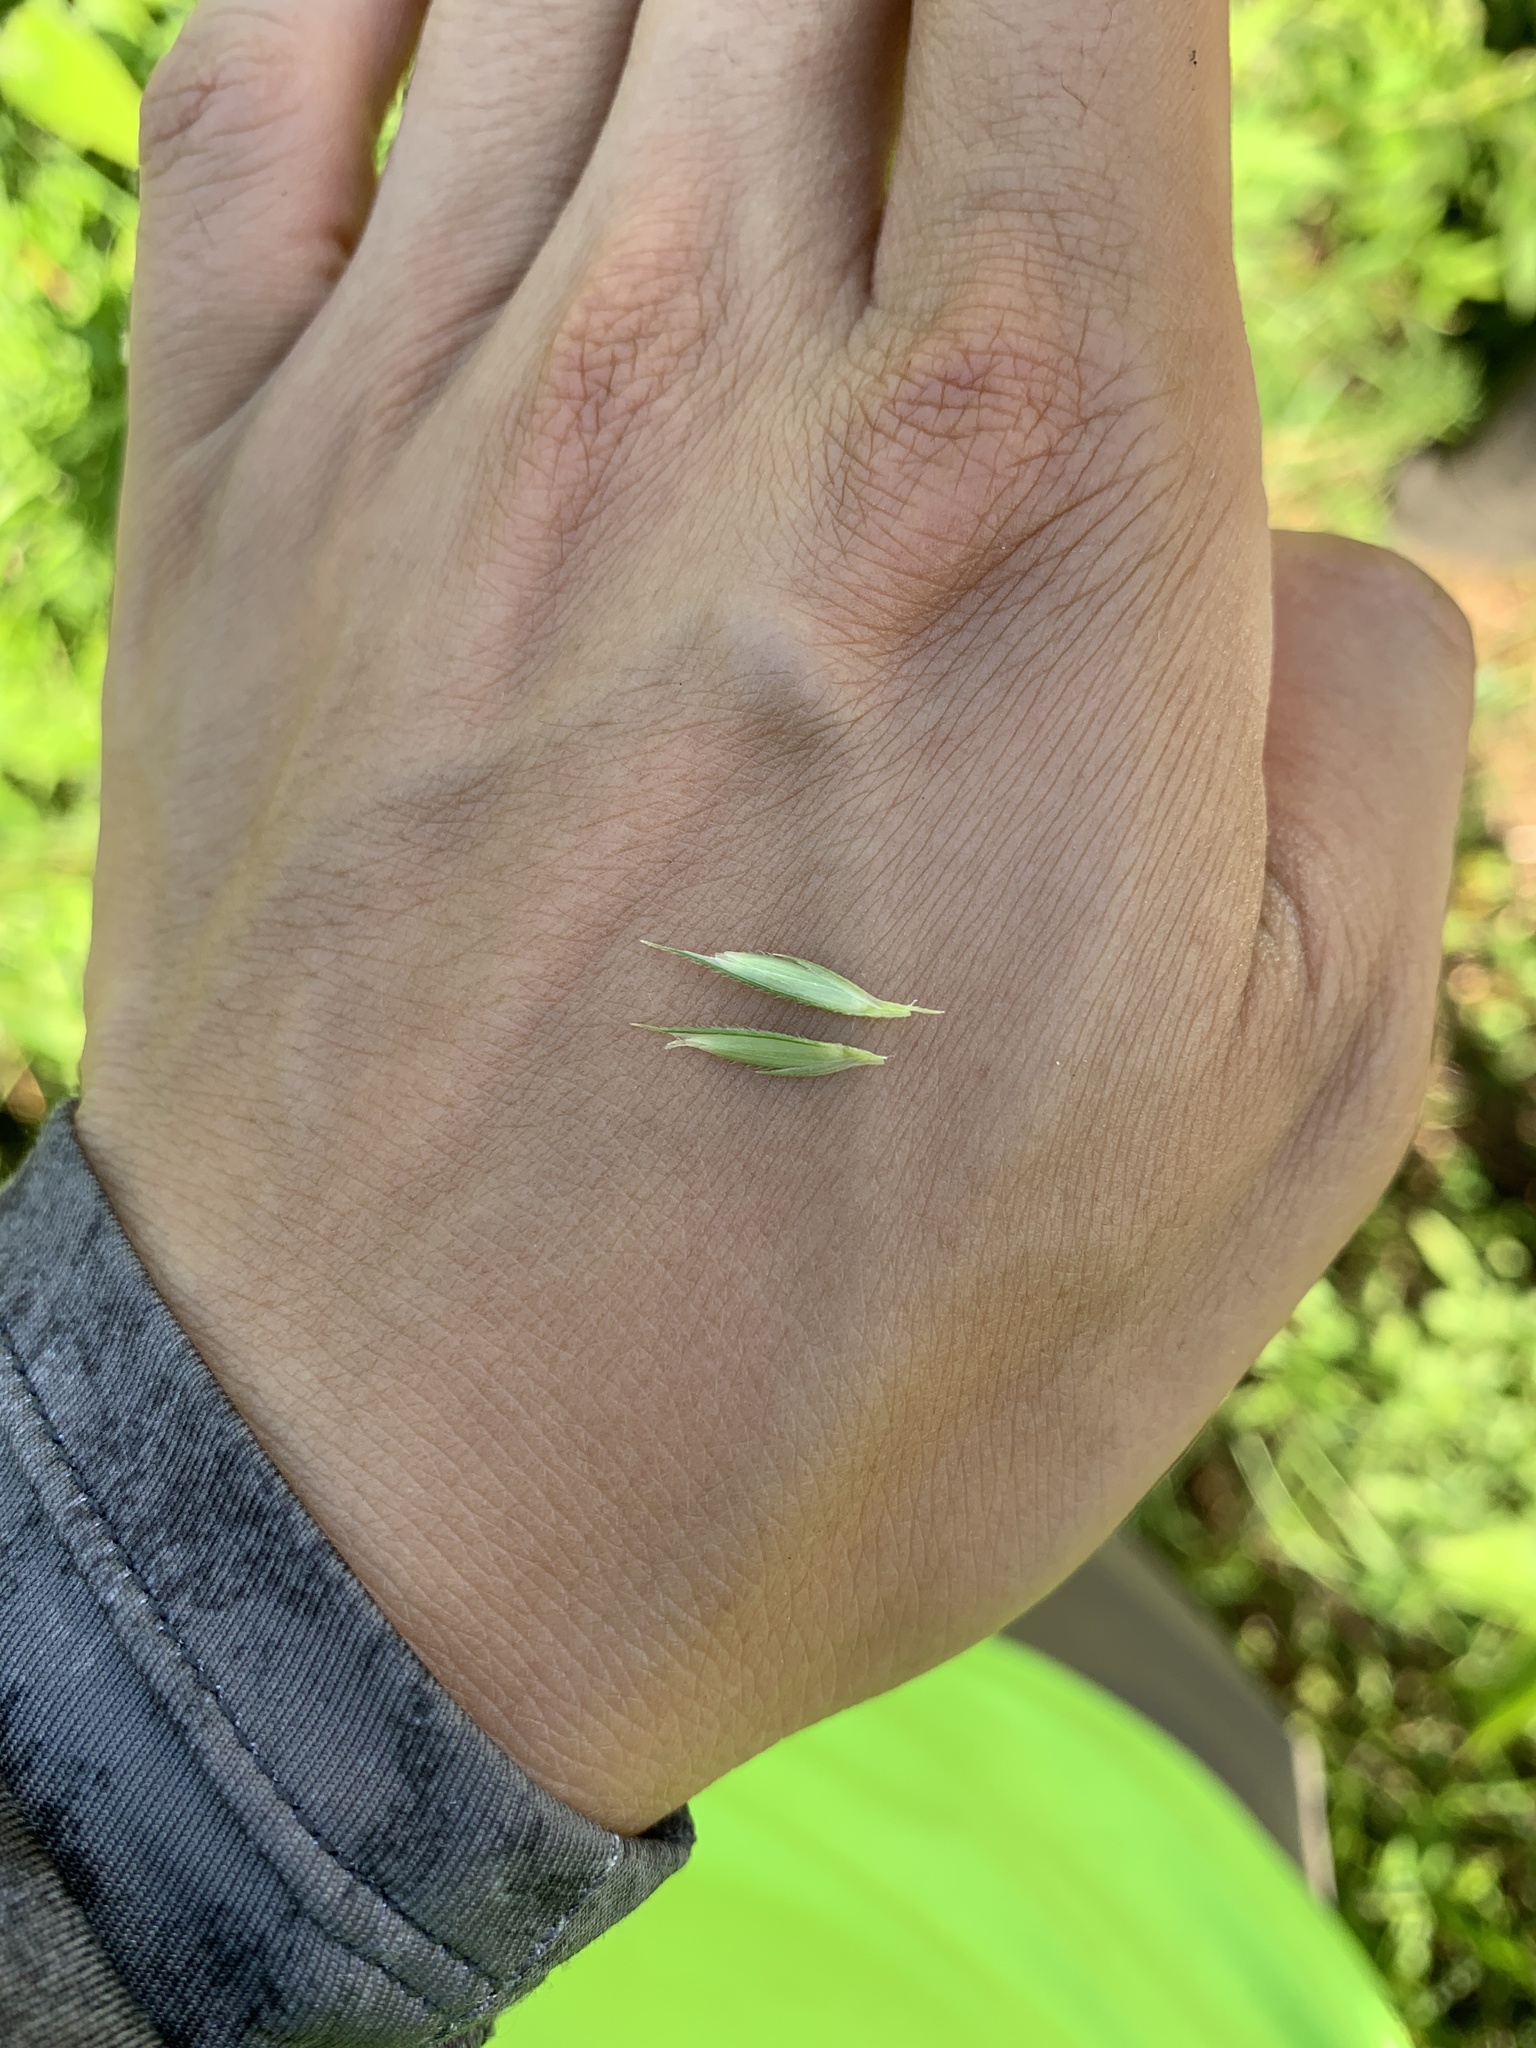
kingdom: Plantae
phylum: Tracheophyta
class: Liliopsida
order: Poales
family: Poaceae
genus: Sporobolus
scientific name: Sporobolus michauxianus
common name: Freshwater cordgrass
